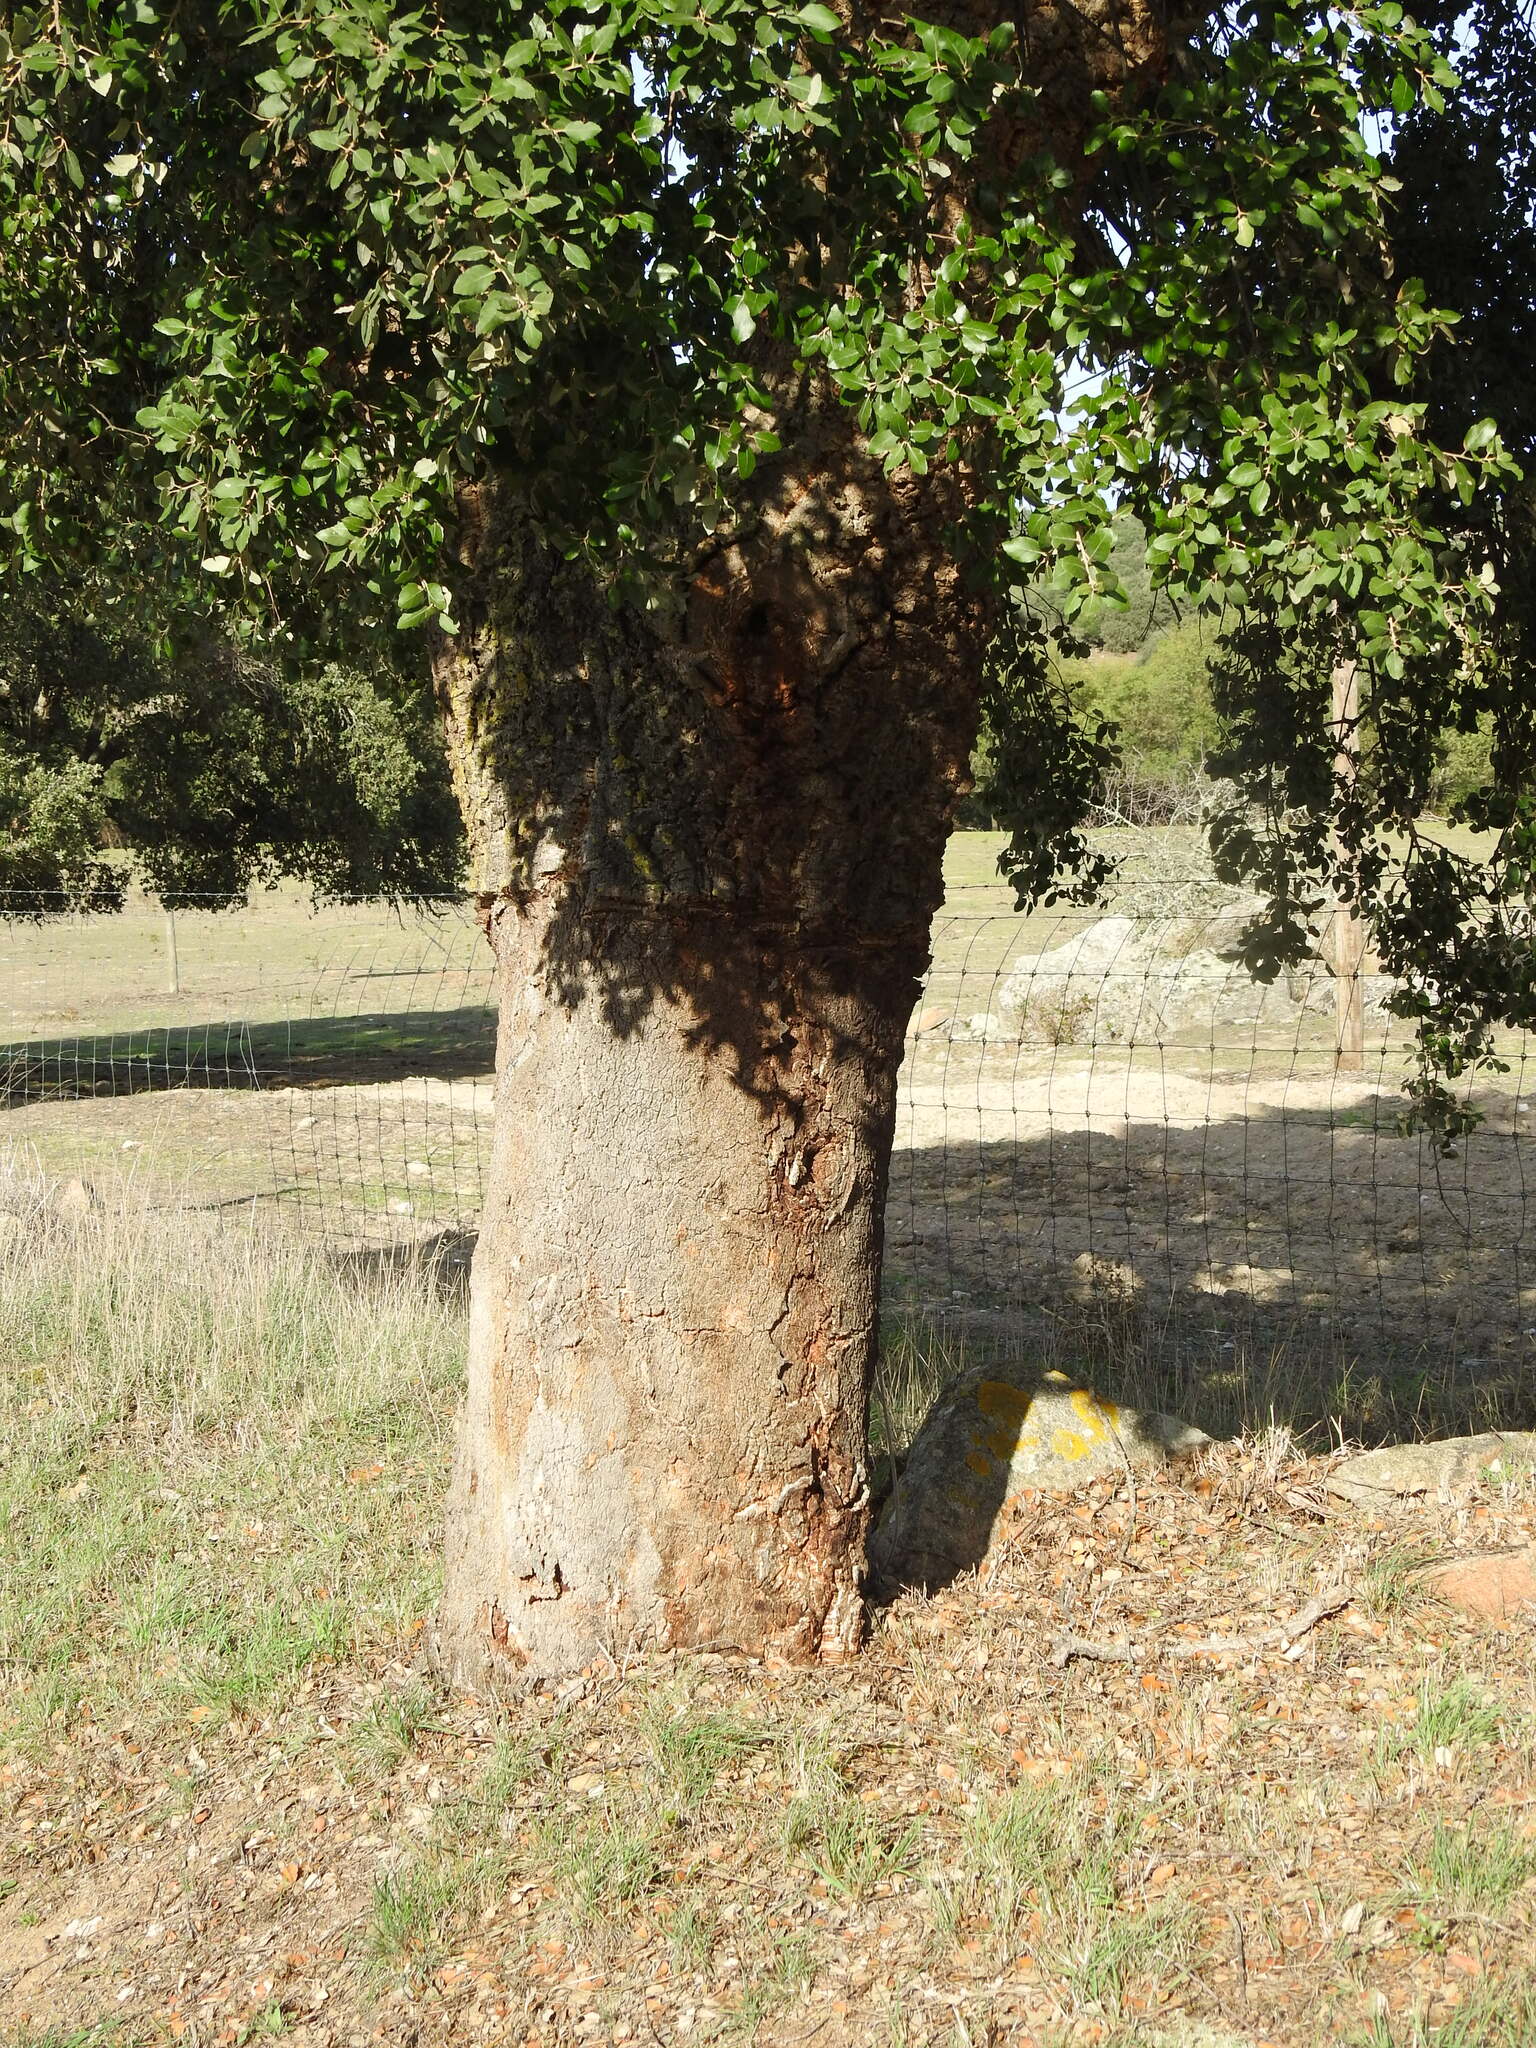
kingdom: Plantae
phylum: Tracheophyta
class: Magnoliopsida
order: Fagales
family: Fagaceae
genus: Quercus
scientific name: Quercus suber
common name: Cork oak
